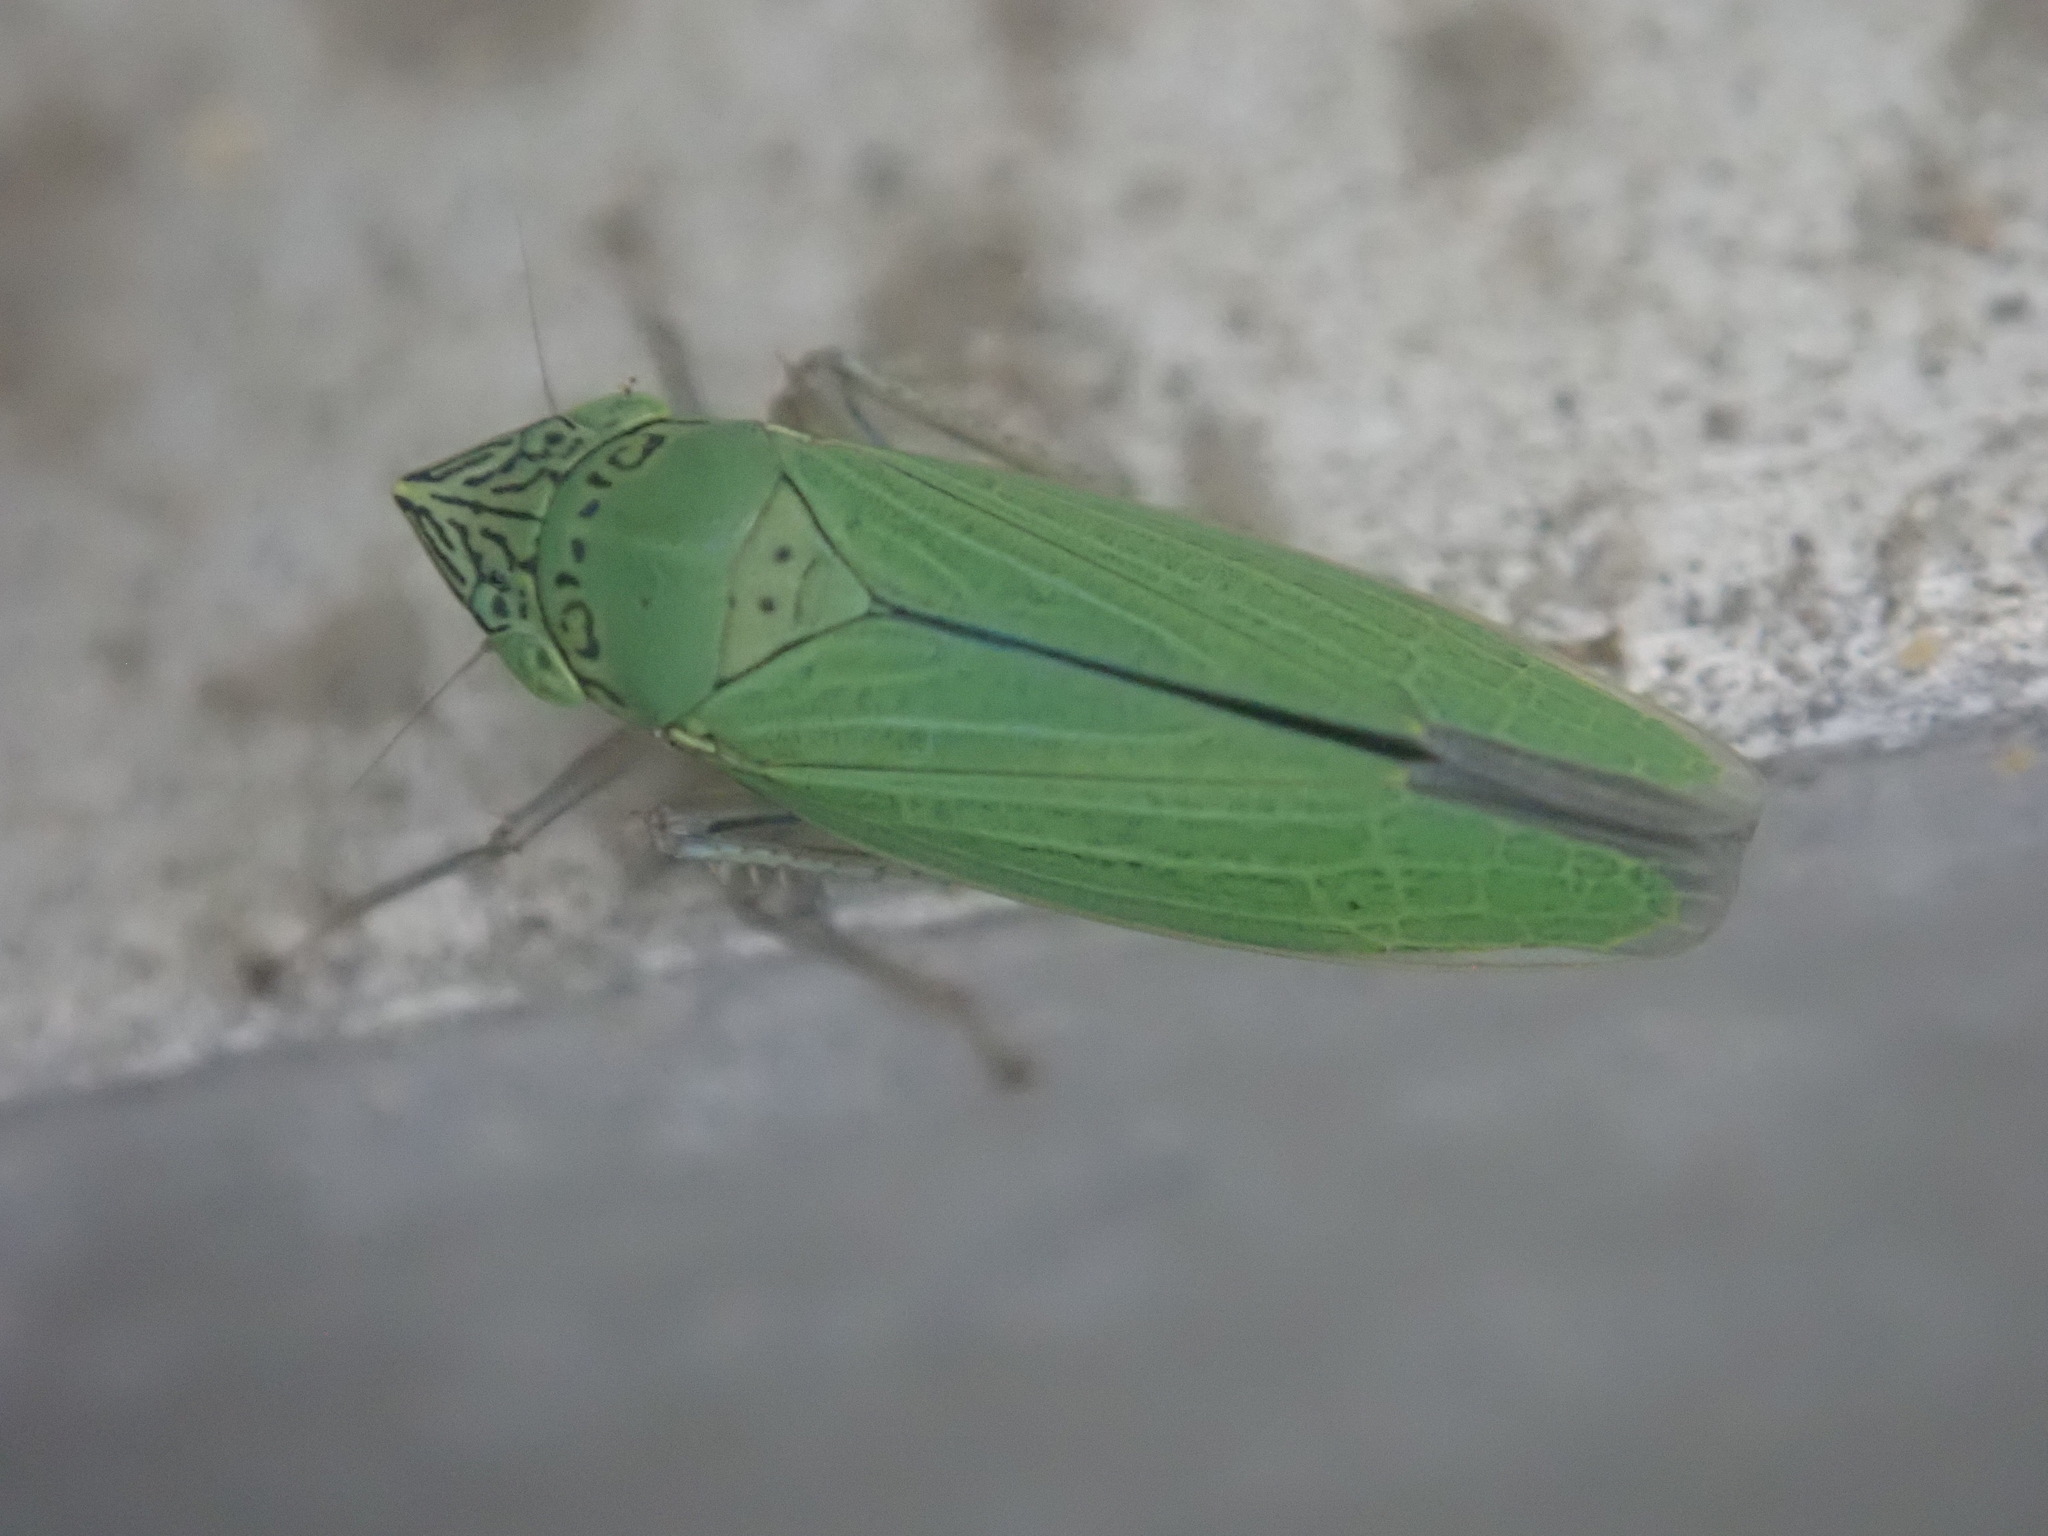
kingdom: Animalia
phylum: Arthropoda
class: Insecta
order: Hemiptera
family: Cicadellidae
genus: Draeculacephala
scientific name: Draeculacephala inscripta
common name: Leafhopper
